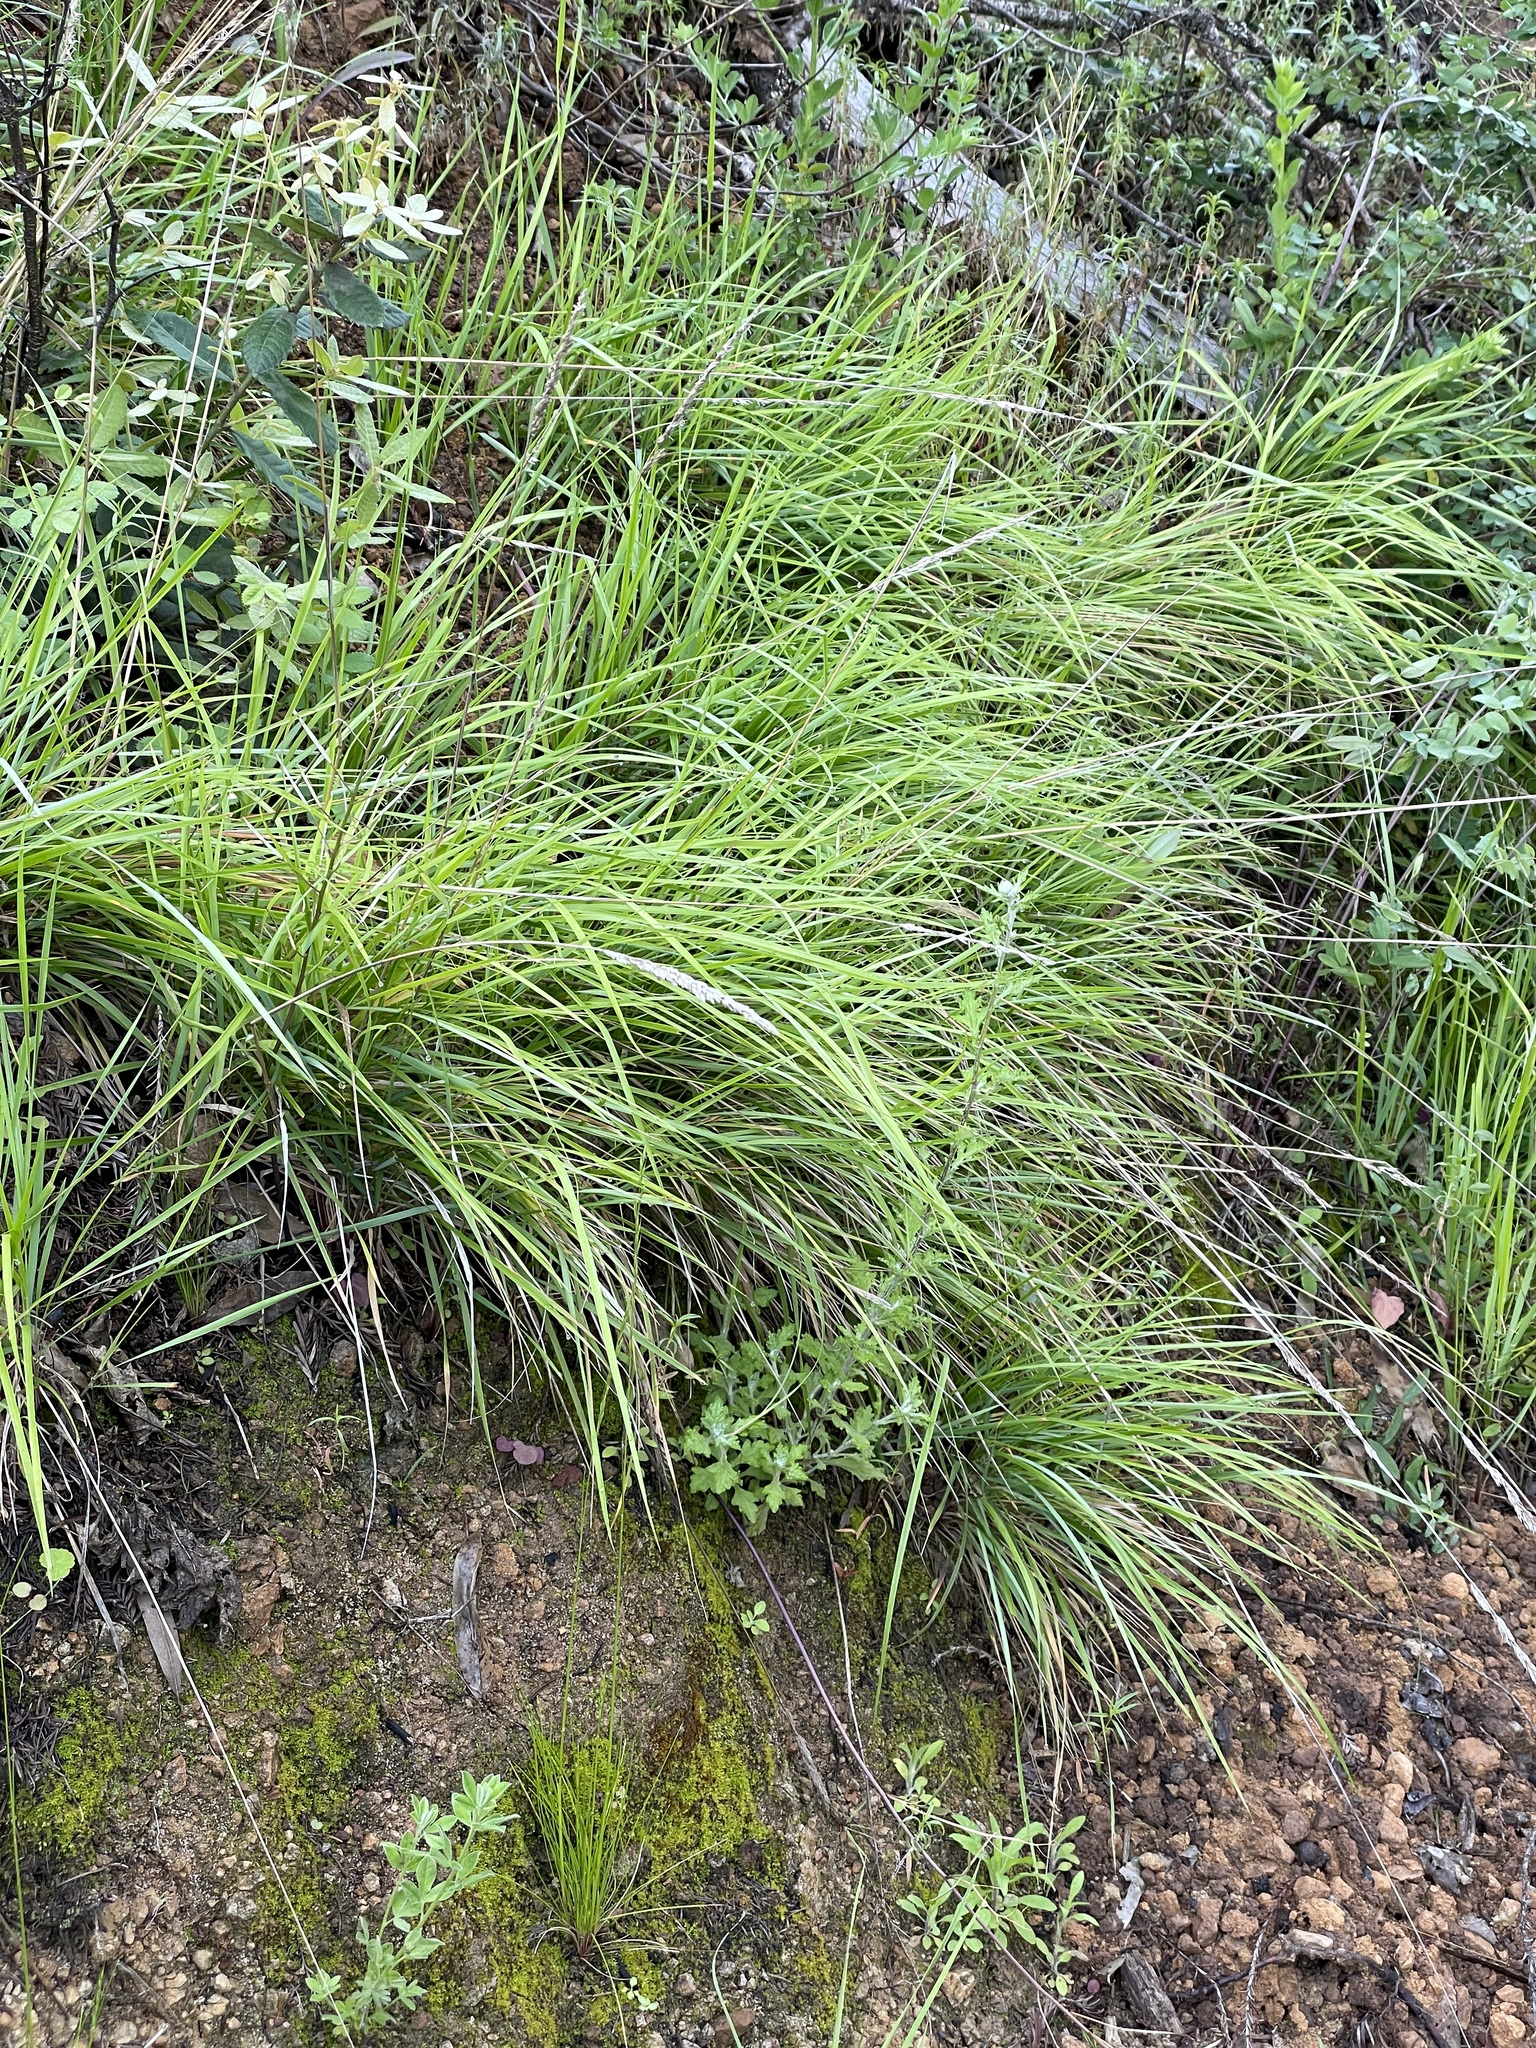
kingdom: Plantae
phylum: Tracheophyta
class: Liliopsida
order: Poales
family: Poaceae
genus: Calamagrostis
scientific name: Calamagrostis rubescens
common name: Pine grass
